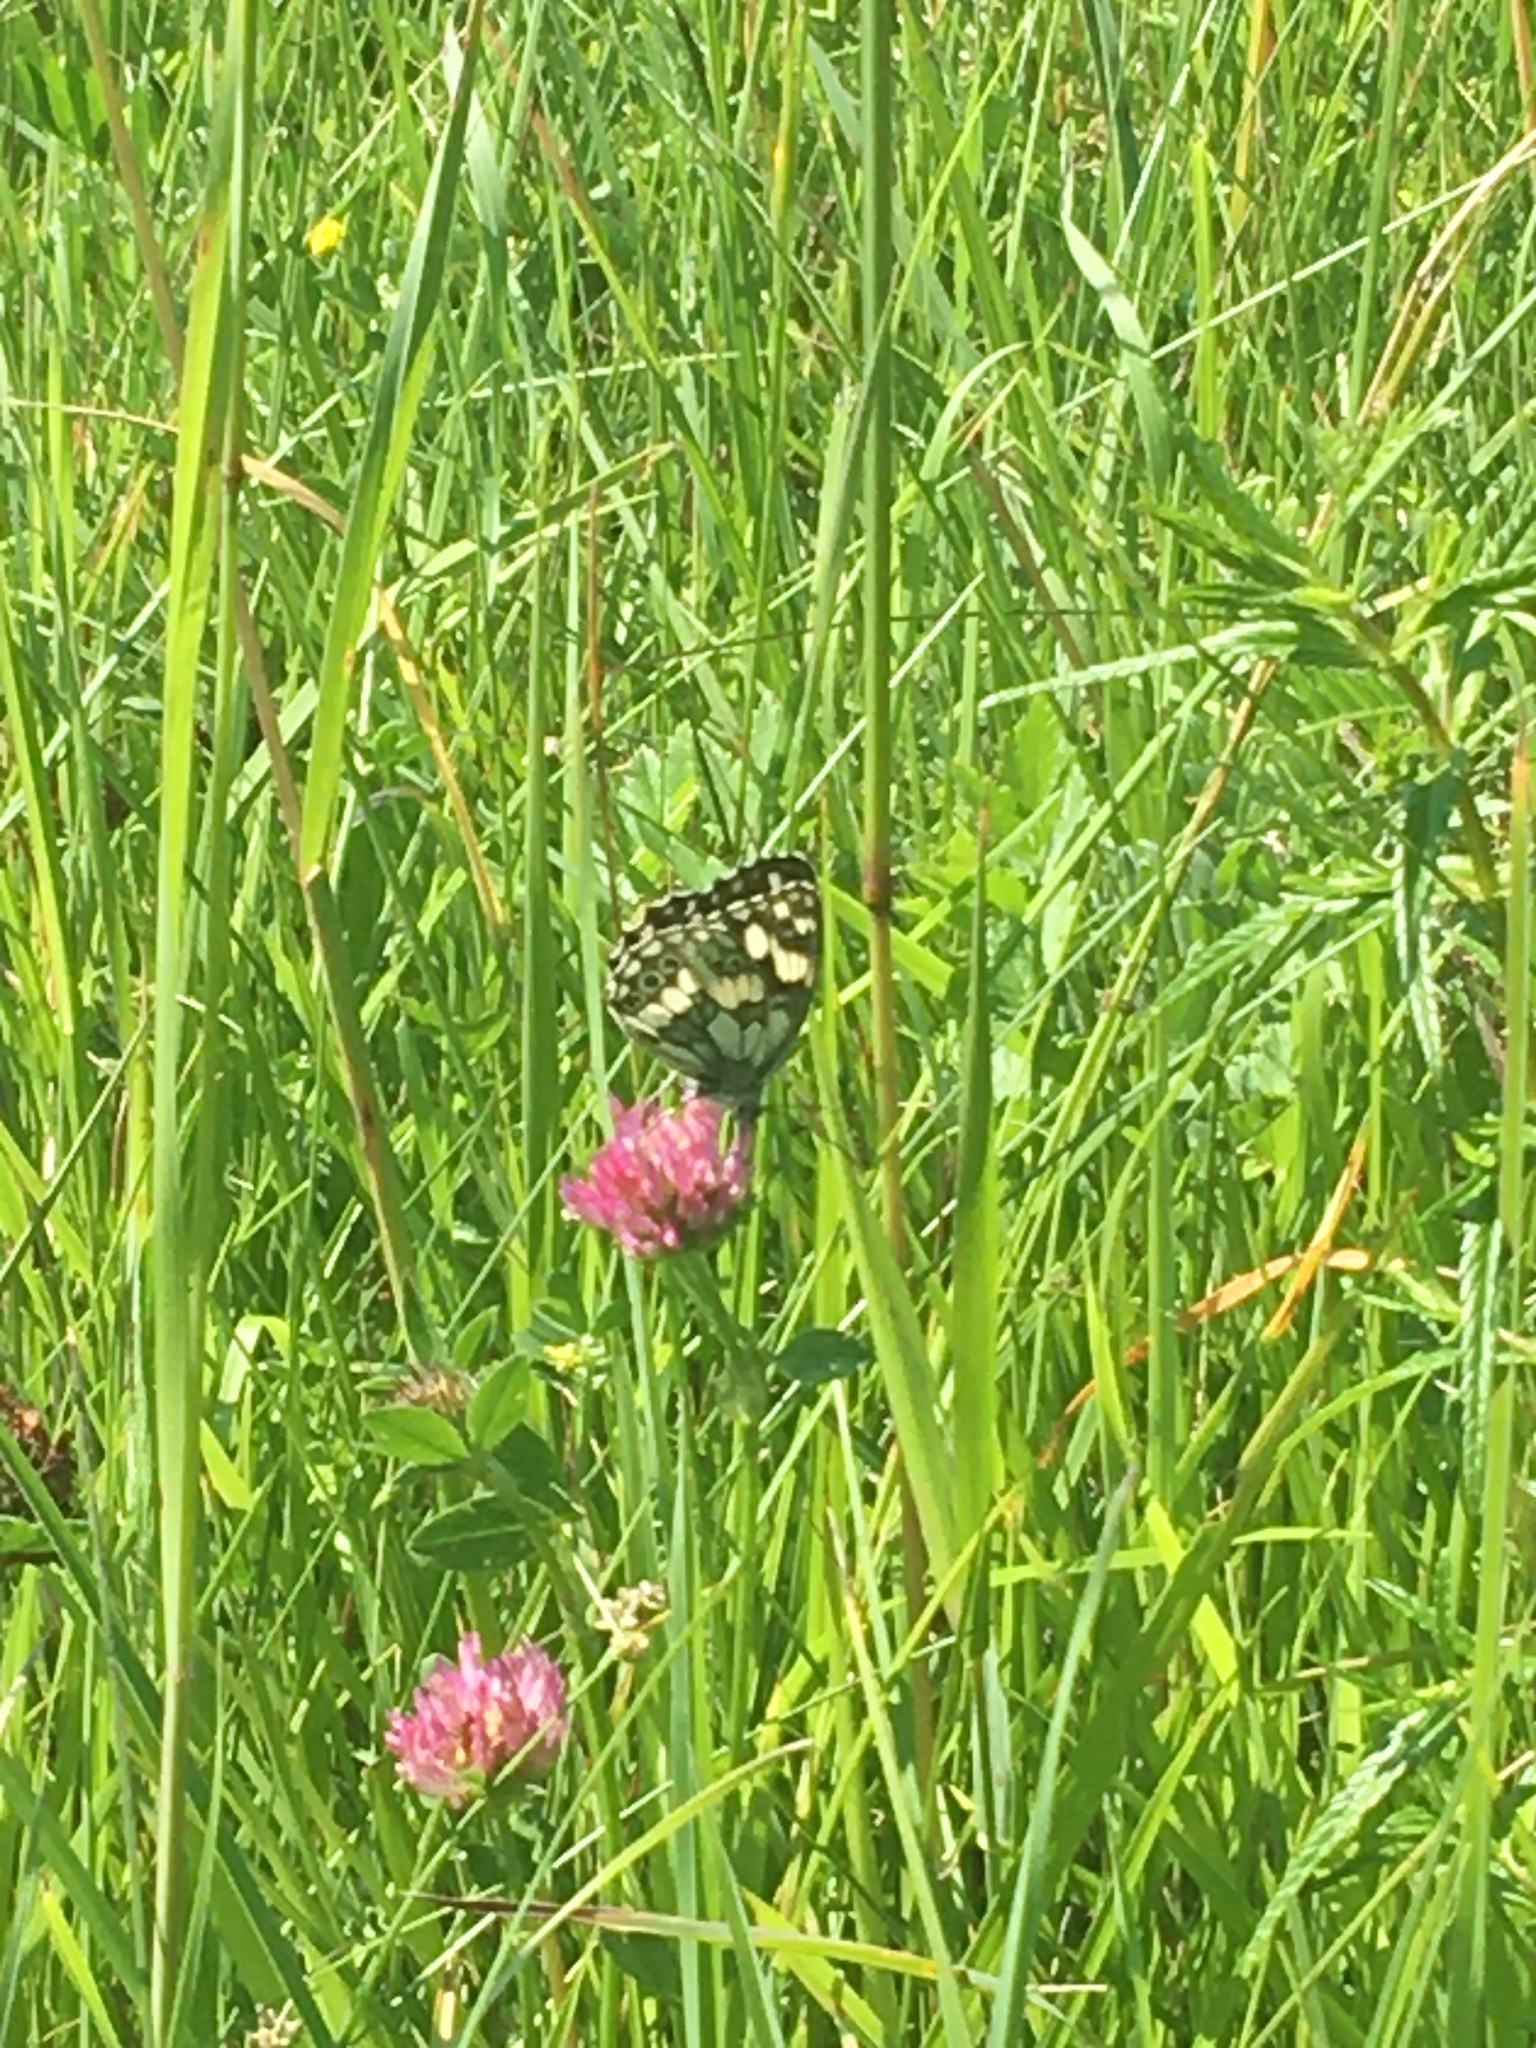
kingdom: Animalia
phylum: Arthropoda
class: Insecta
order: Lepidoptera
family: Nymphalidae
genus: Melanargia
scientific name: Melanargia galathea
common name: Marbled white
